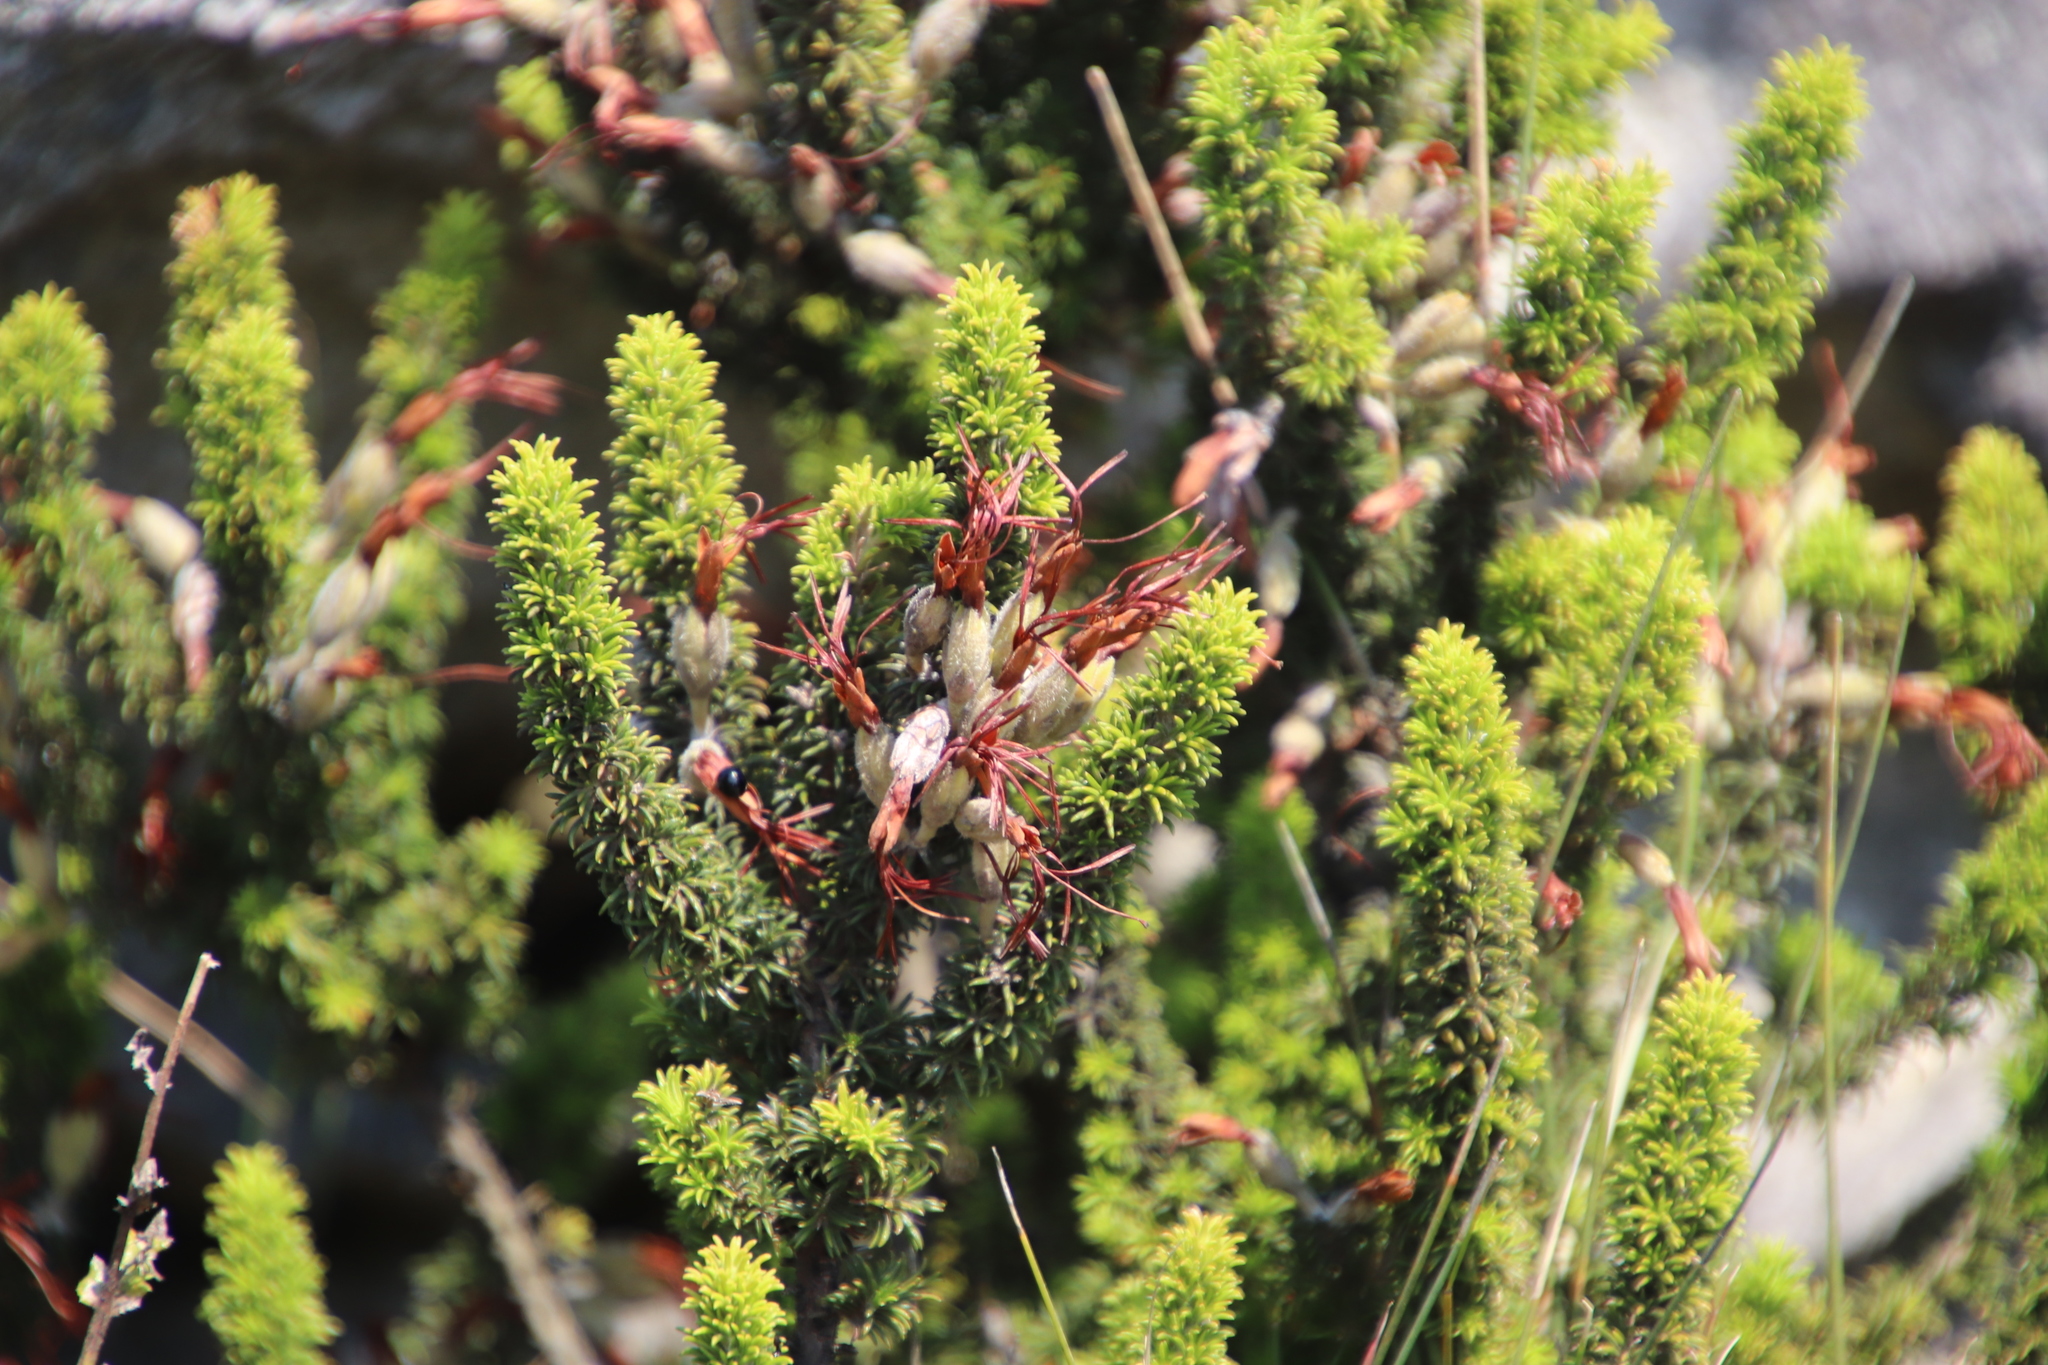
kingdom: Plantae
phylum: Tracheophyta
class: Magnoliopsida
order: Ericales
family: Ericaceae
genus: Erica
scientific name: Erica coccinea
